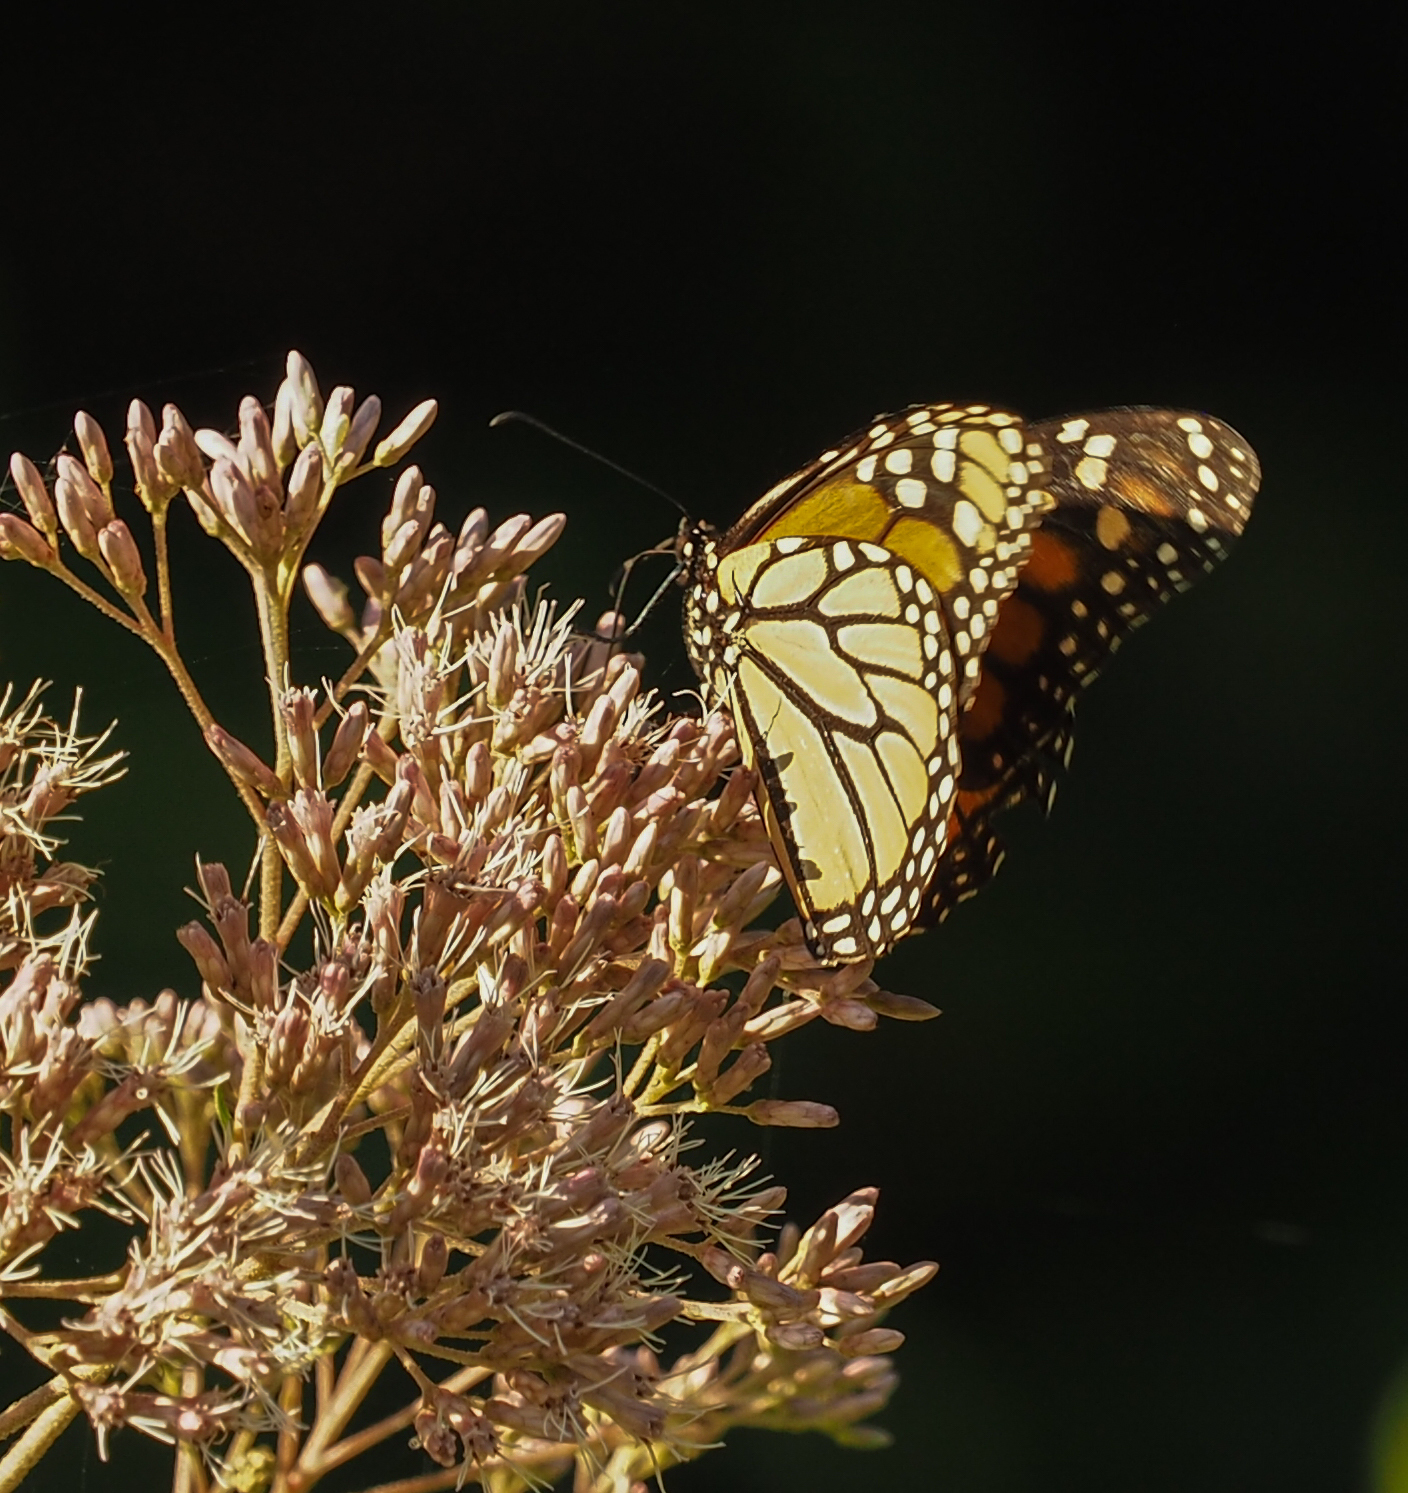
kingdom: Animalia
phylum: Arthropoda
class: Insecta
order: Lepidoptera
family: Nymphalidae
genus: Danaus
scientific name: Danaus plexippus
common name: Monarch
